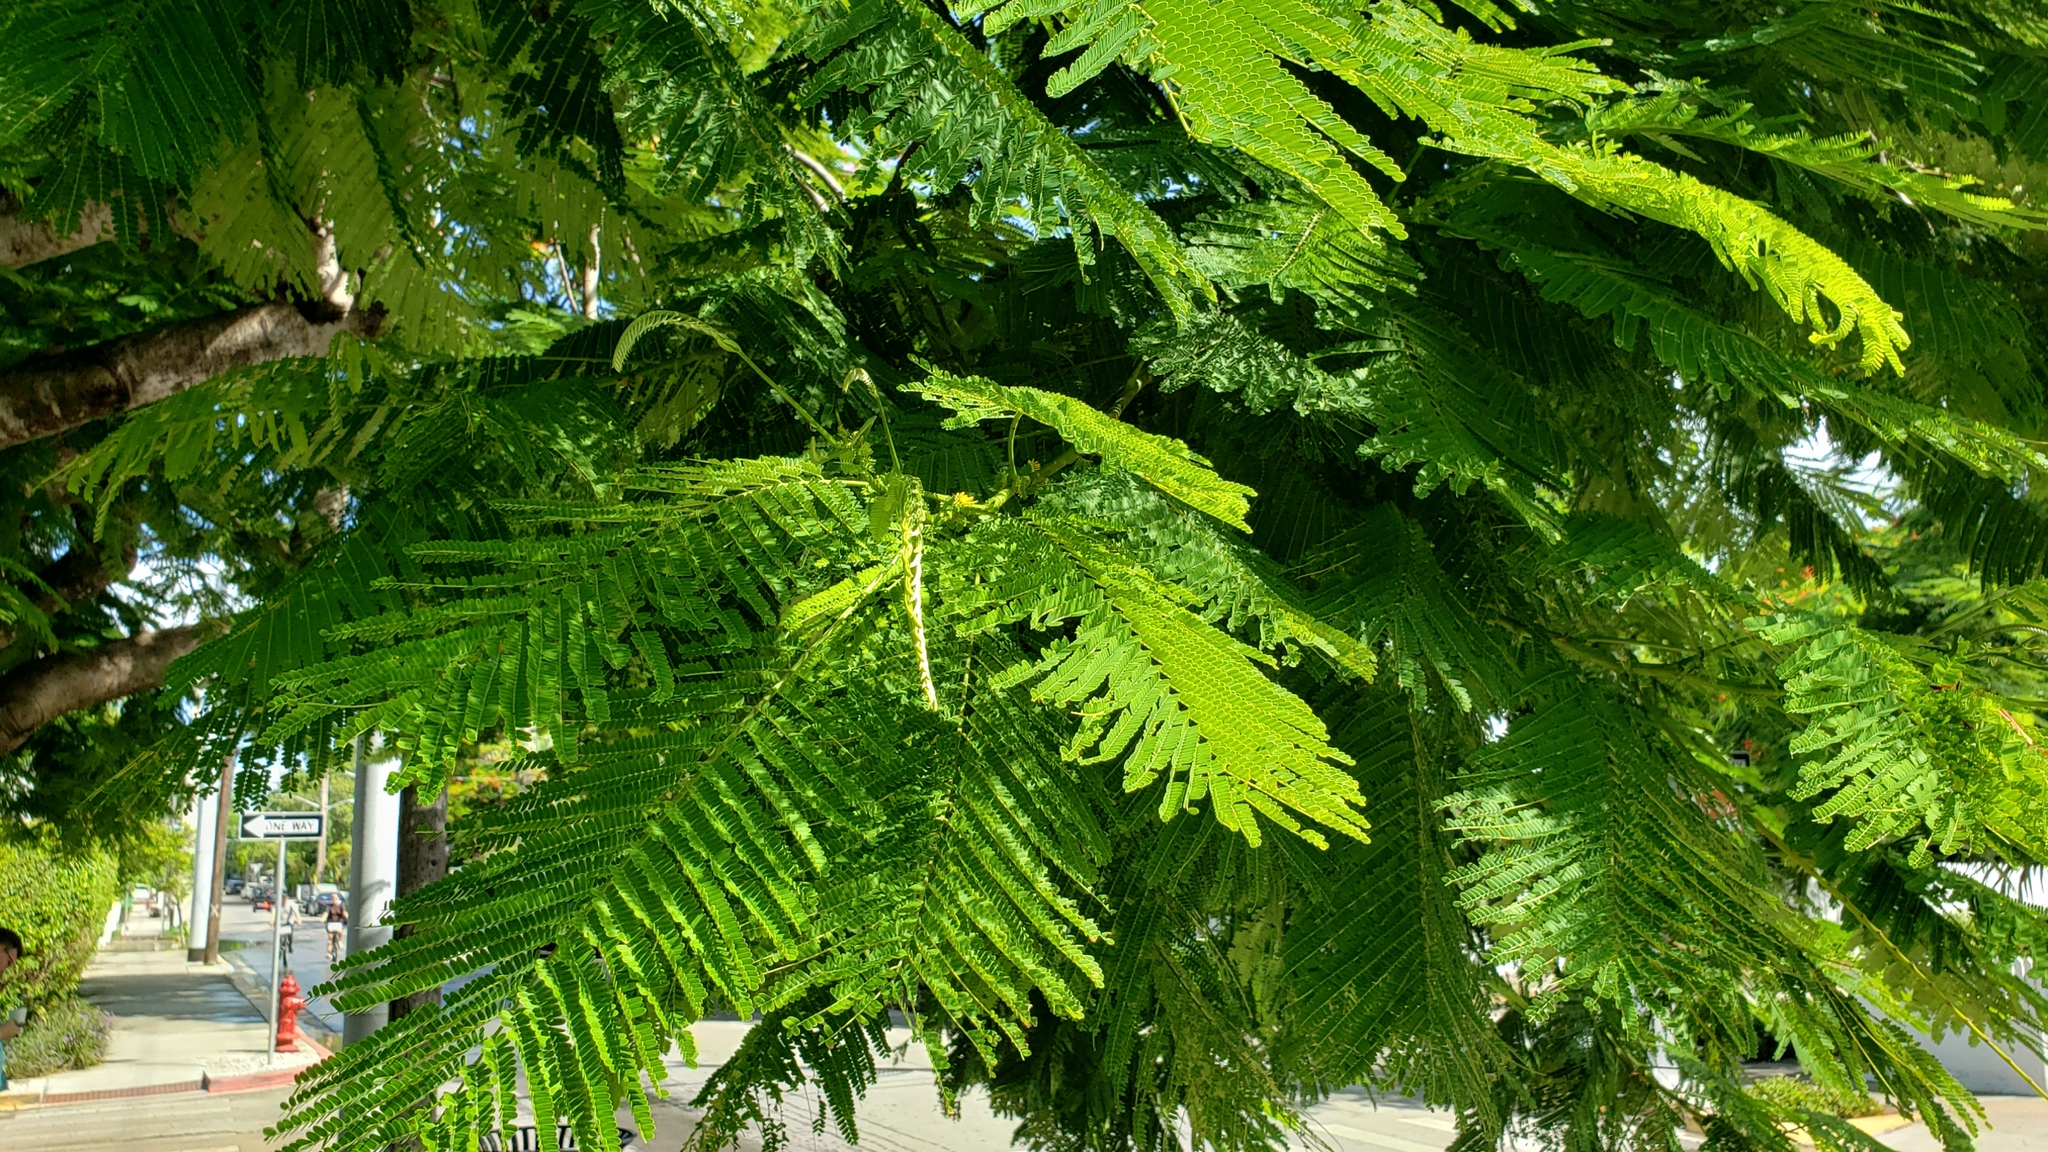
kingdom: Plantae
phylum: Tracheophyta
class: Magnoliopsida
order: Fabales
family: Fabaceae
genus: Delonix
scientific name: Delonix regia
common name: Royal poinciana
